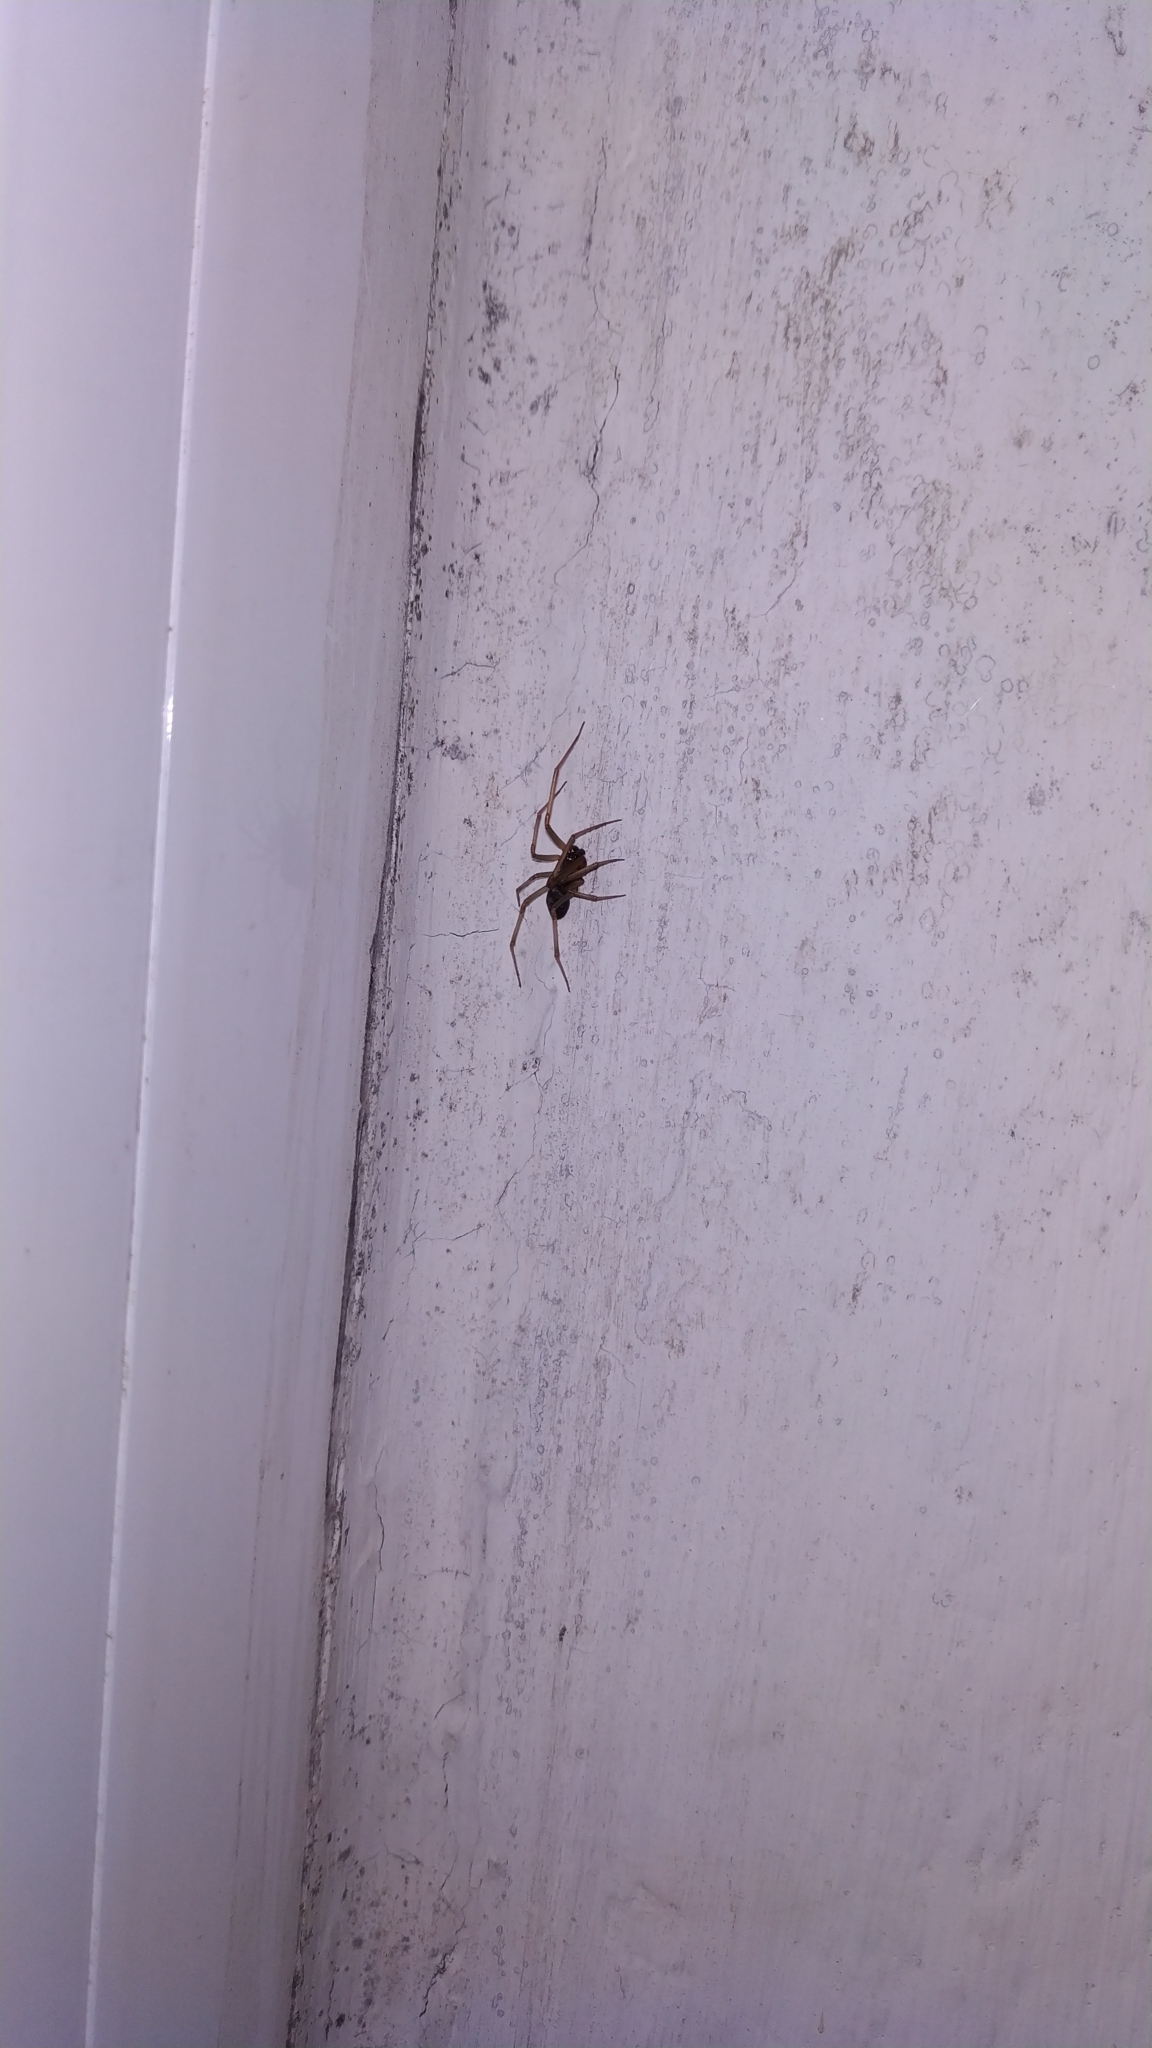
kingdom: Animalia
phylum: Arthropoda
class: Arachnida
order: Araneae
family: Theridiidae
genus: Steatoda
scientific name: Steatoda grossa
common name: False black widow
